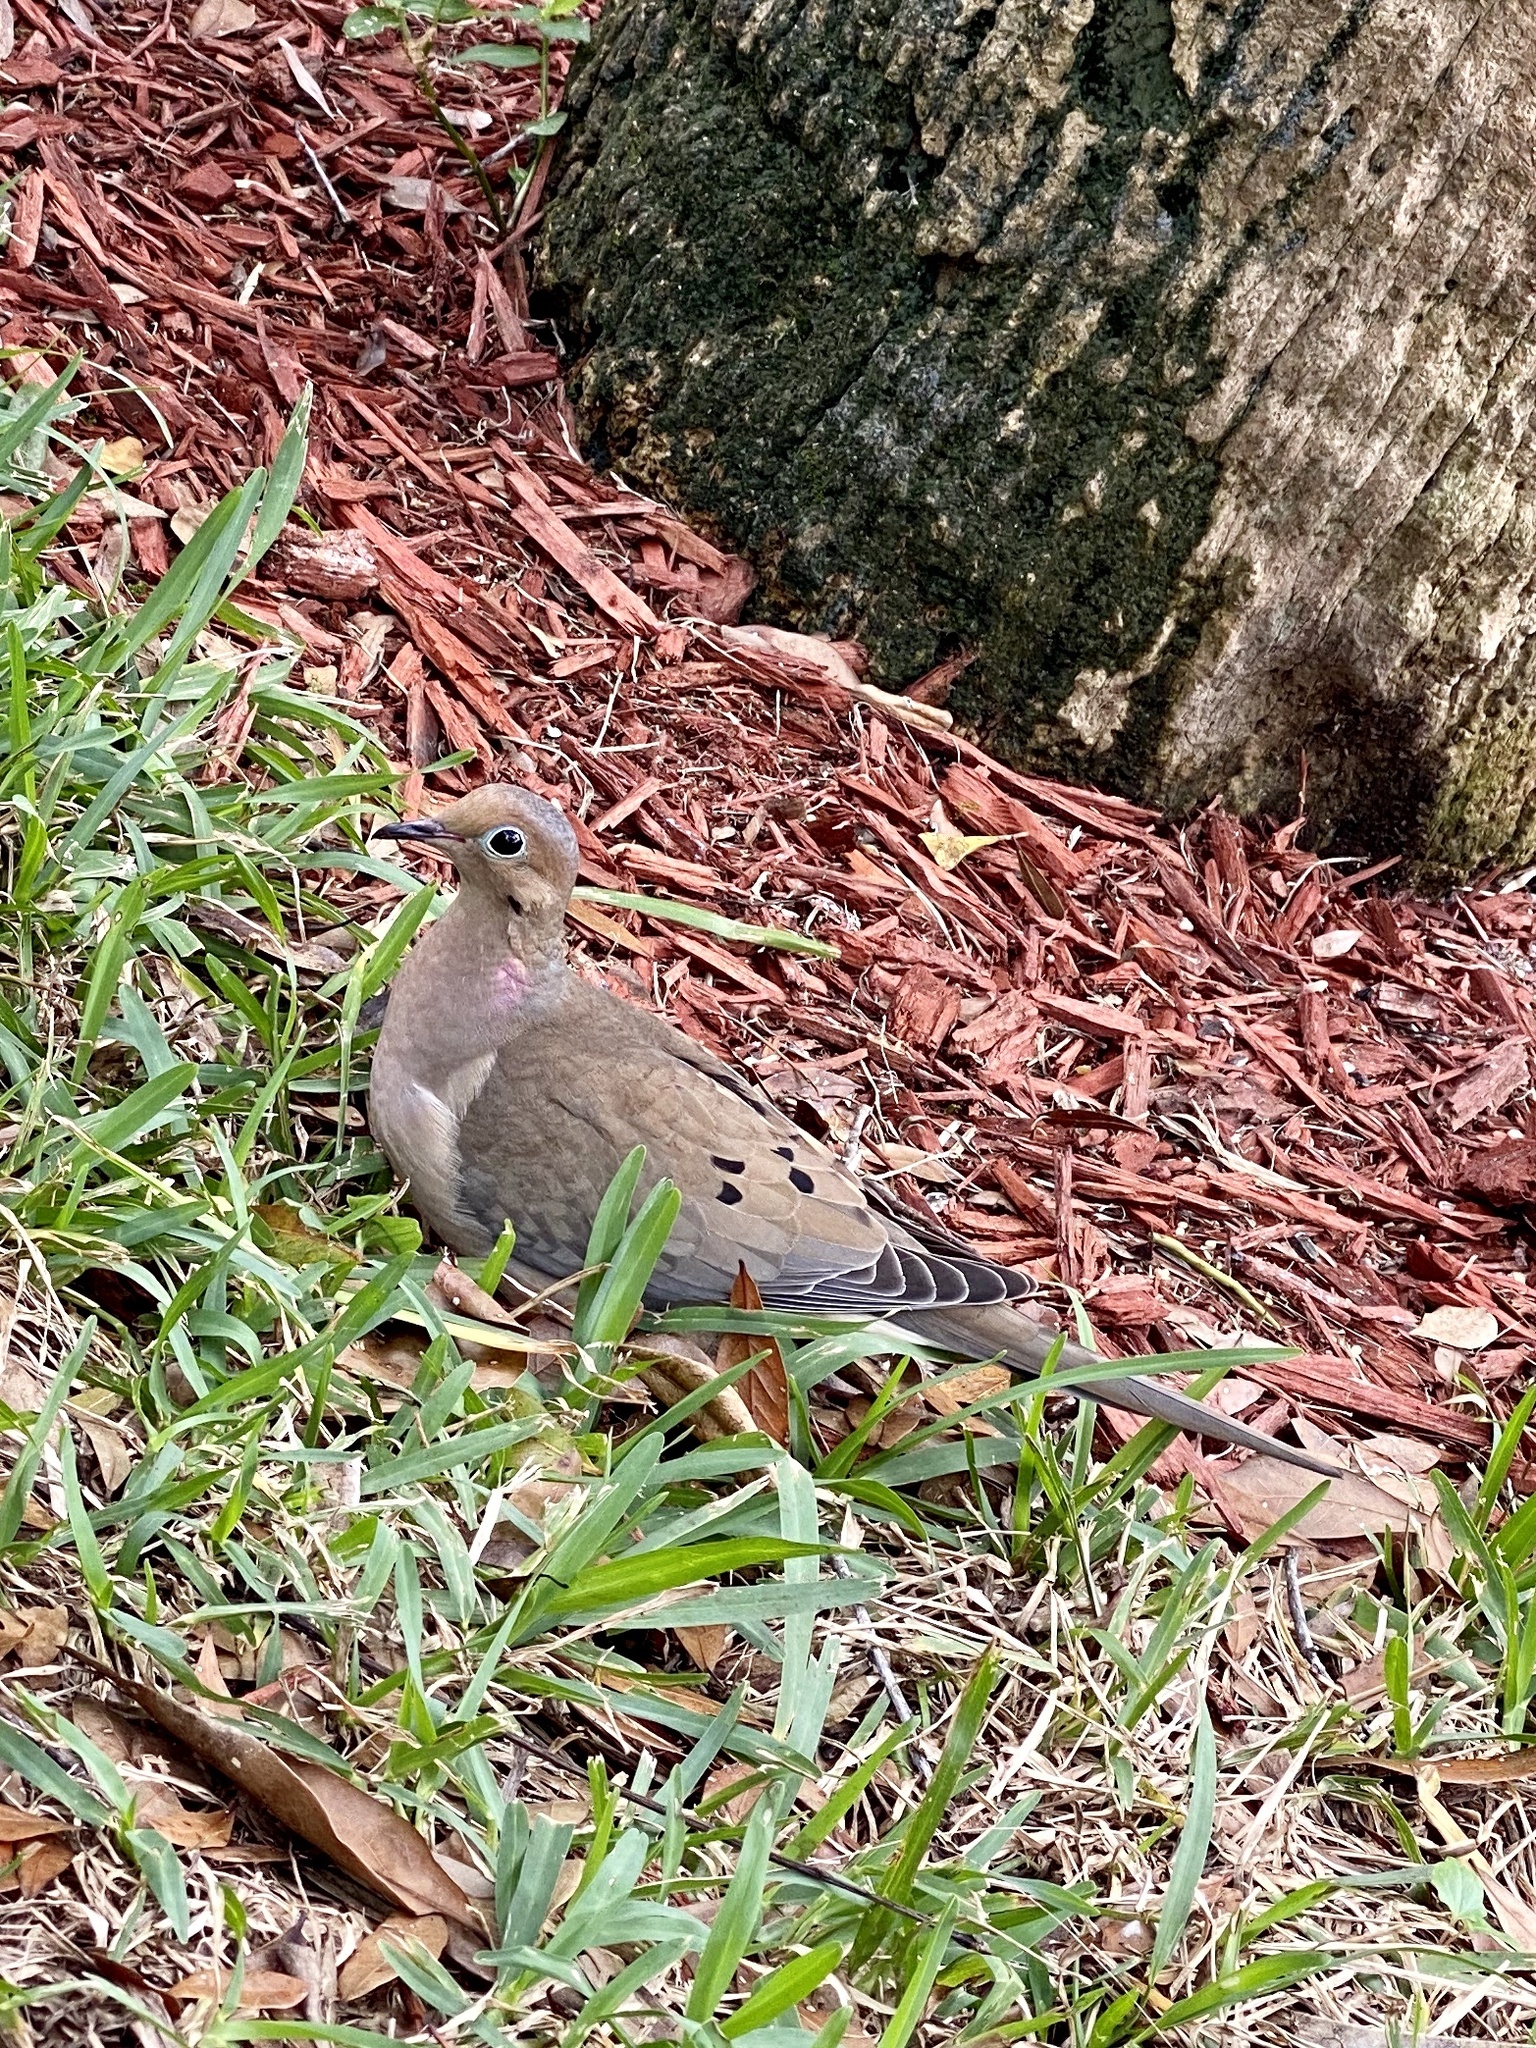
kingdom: Animalia
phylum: Chordata
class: Aves
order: Columbiformes
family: Columbidae
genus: Zenaida
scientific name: Zenaida macroura
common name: Mourning dove
